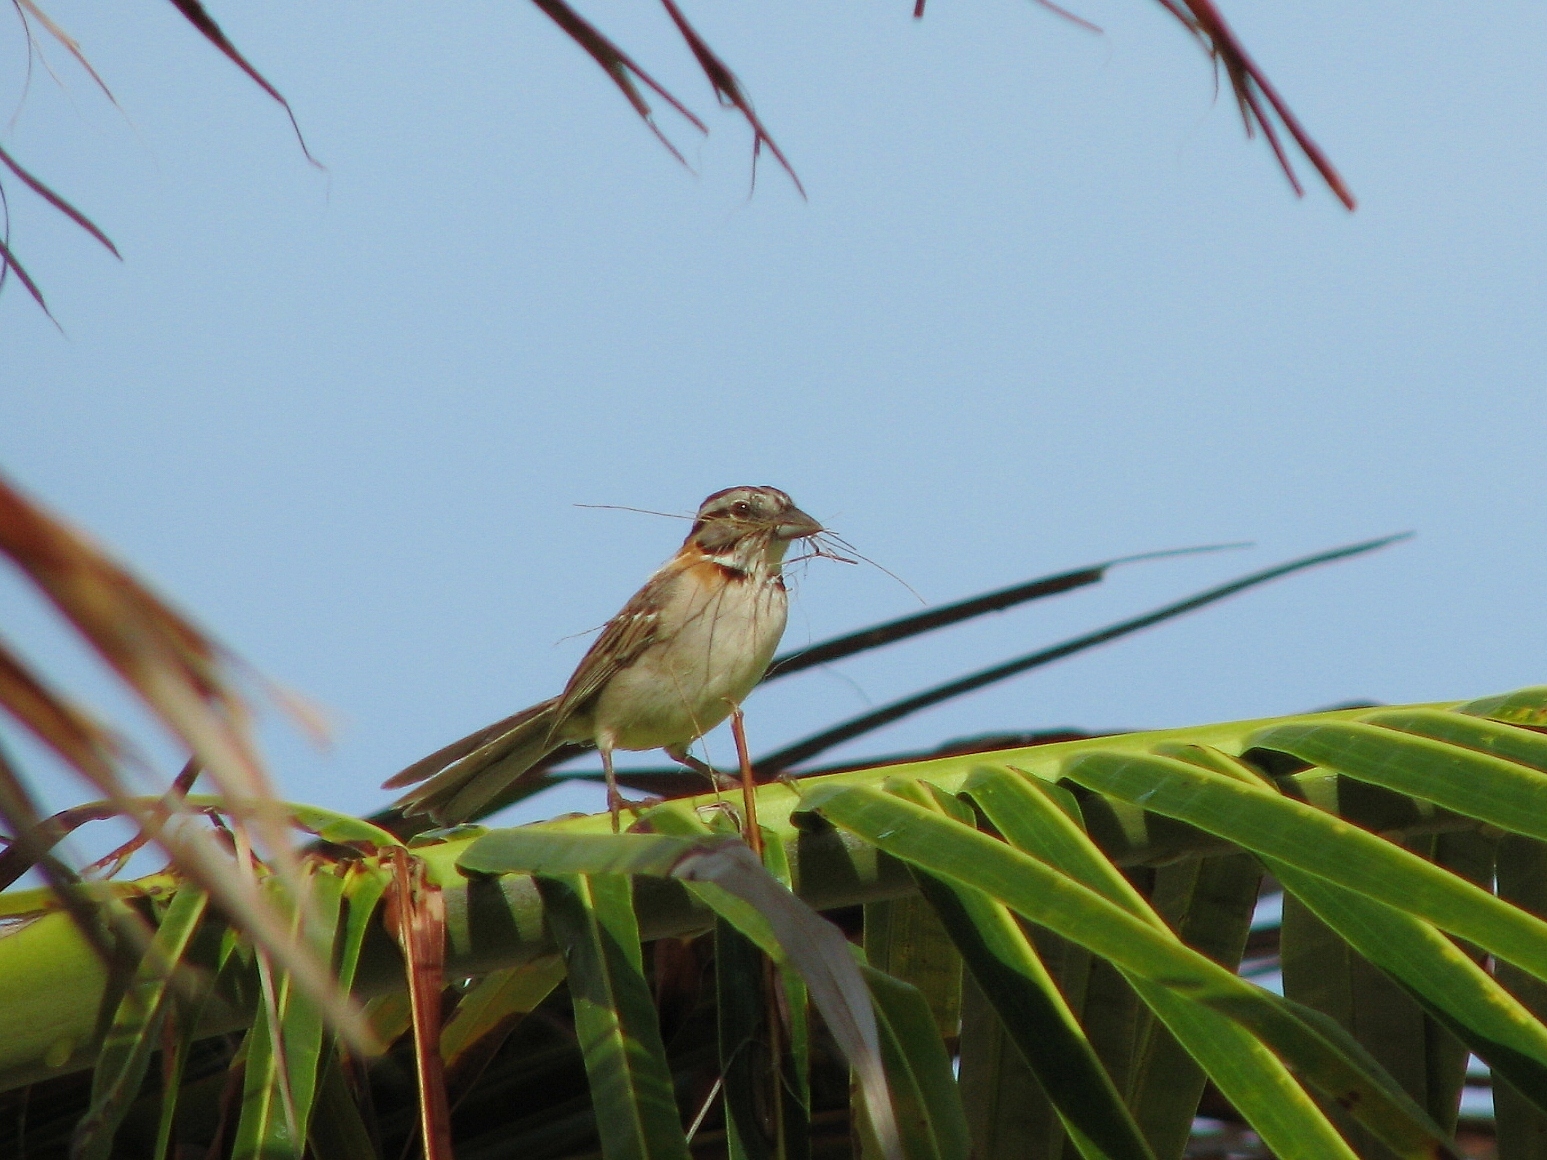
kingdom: Animalia
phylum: Chordata
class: Aves
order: Passeriformes
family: Passerellidae
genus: Zonotrichia
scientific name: Zonotrichia capensis
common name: Rufous-collared sparrow
